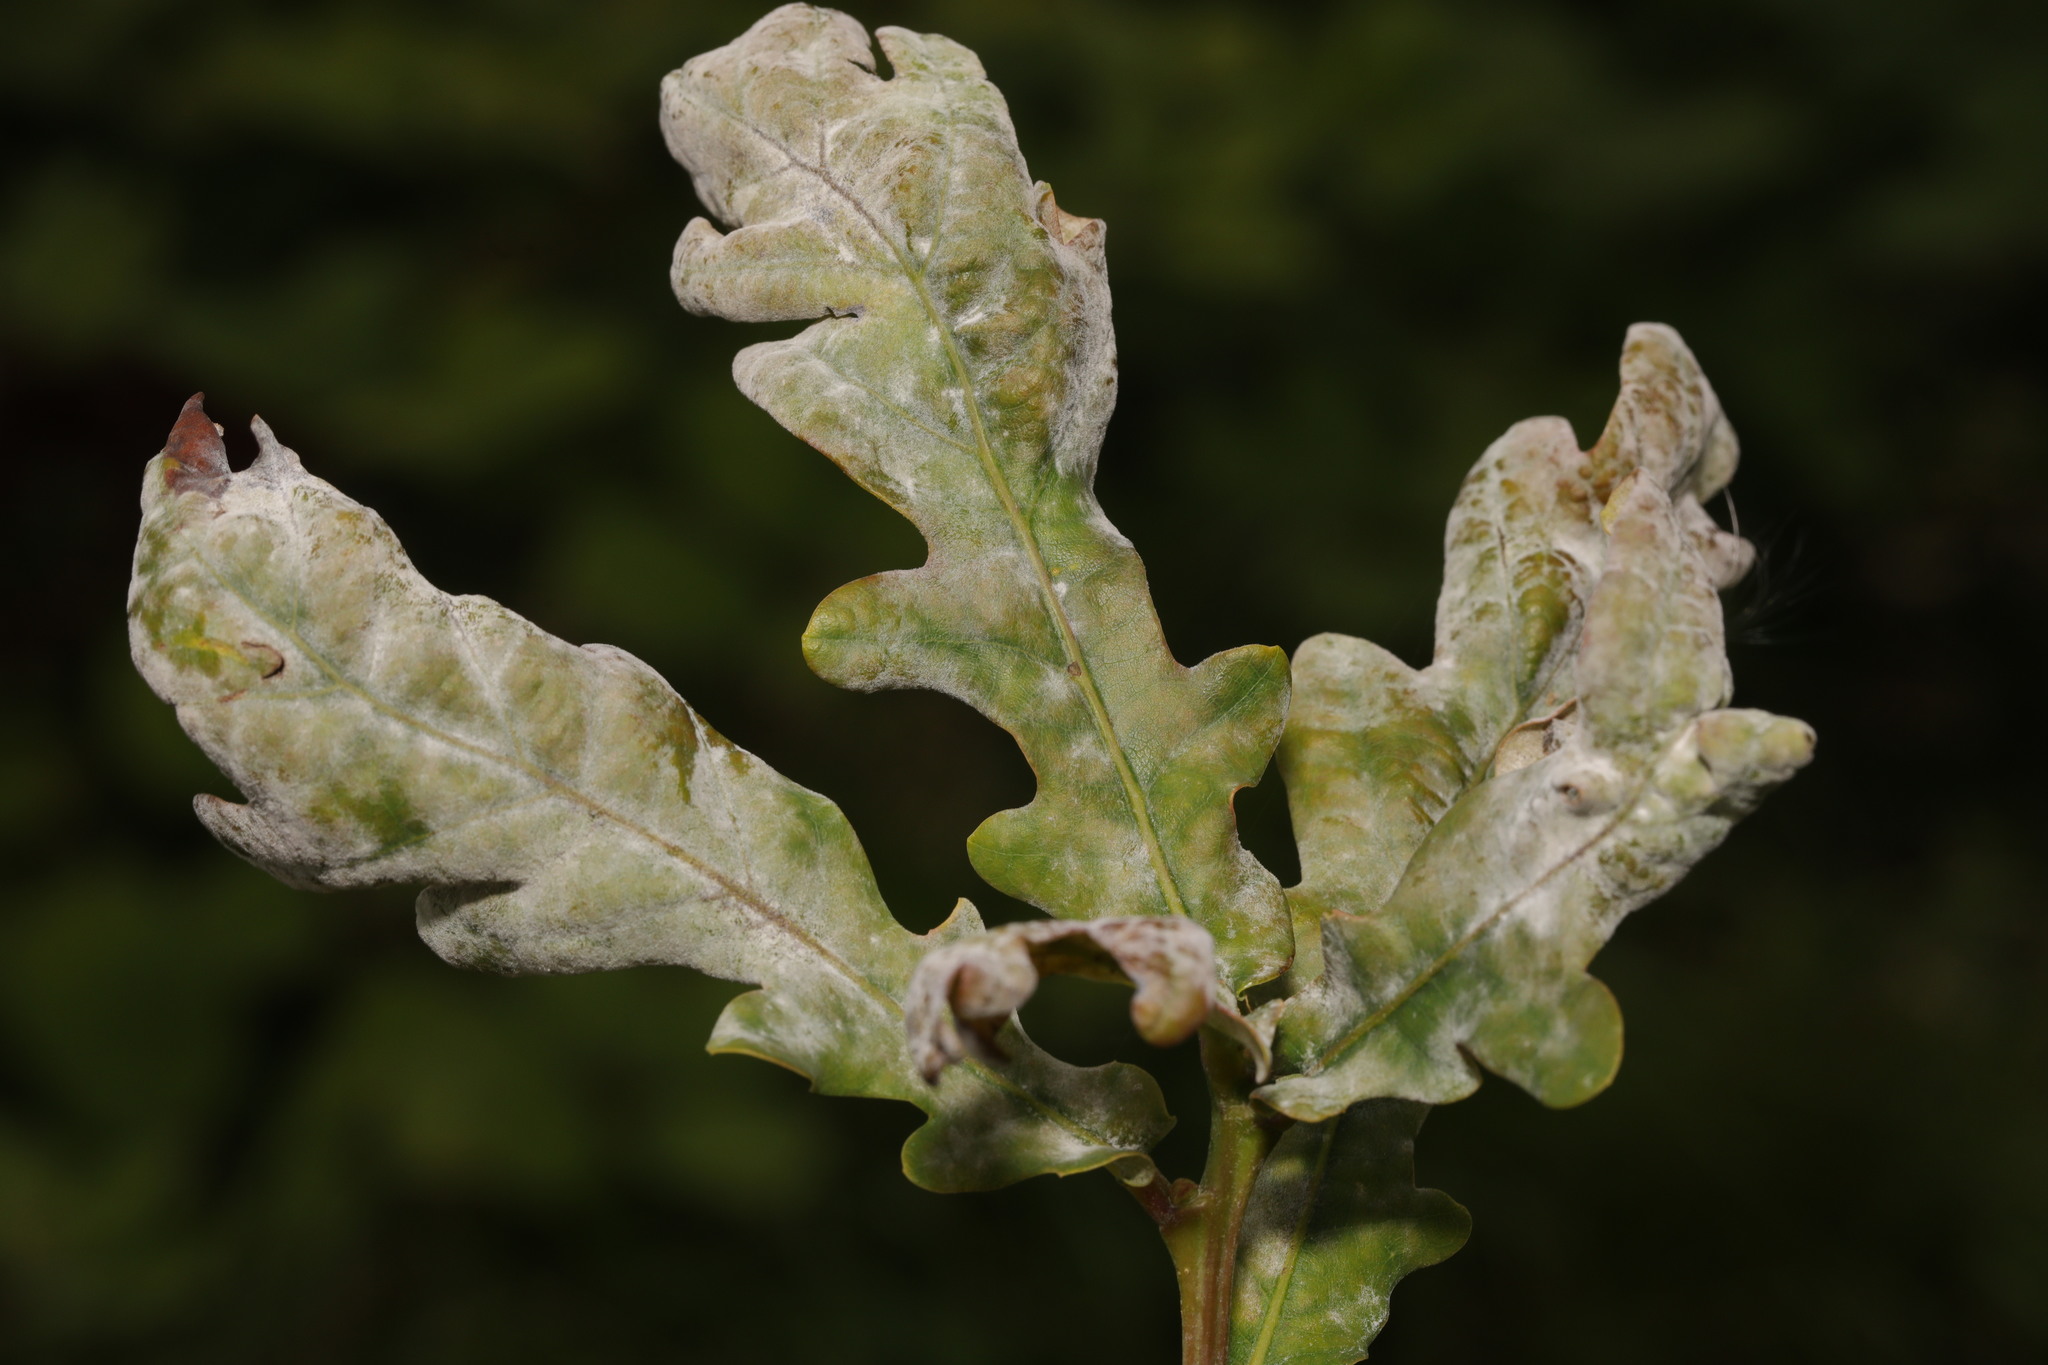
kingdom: Fungi
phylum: Ascomycota
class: Leotiomycetes
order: Helotiales
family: Erysiphaceae
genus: Erysiphe
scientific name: Erysiphe alphitoides
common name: Oak mildew
